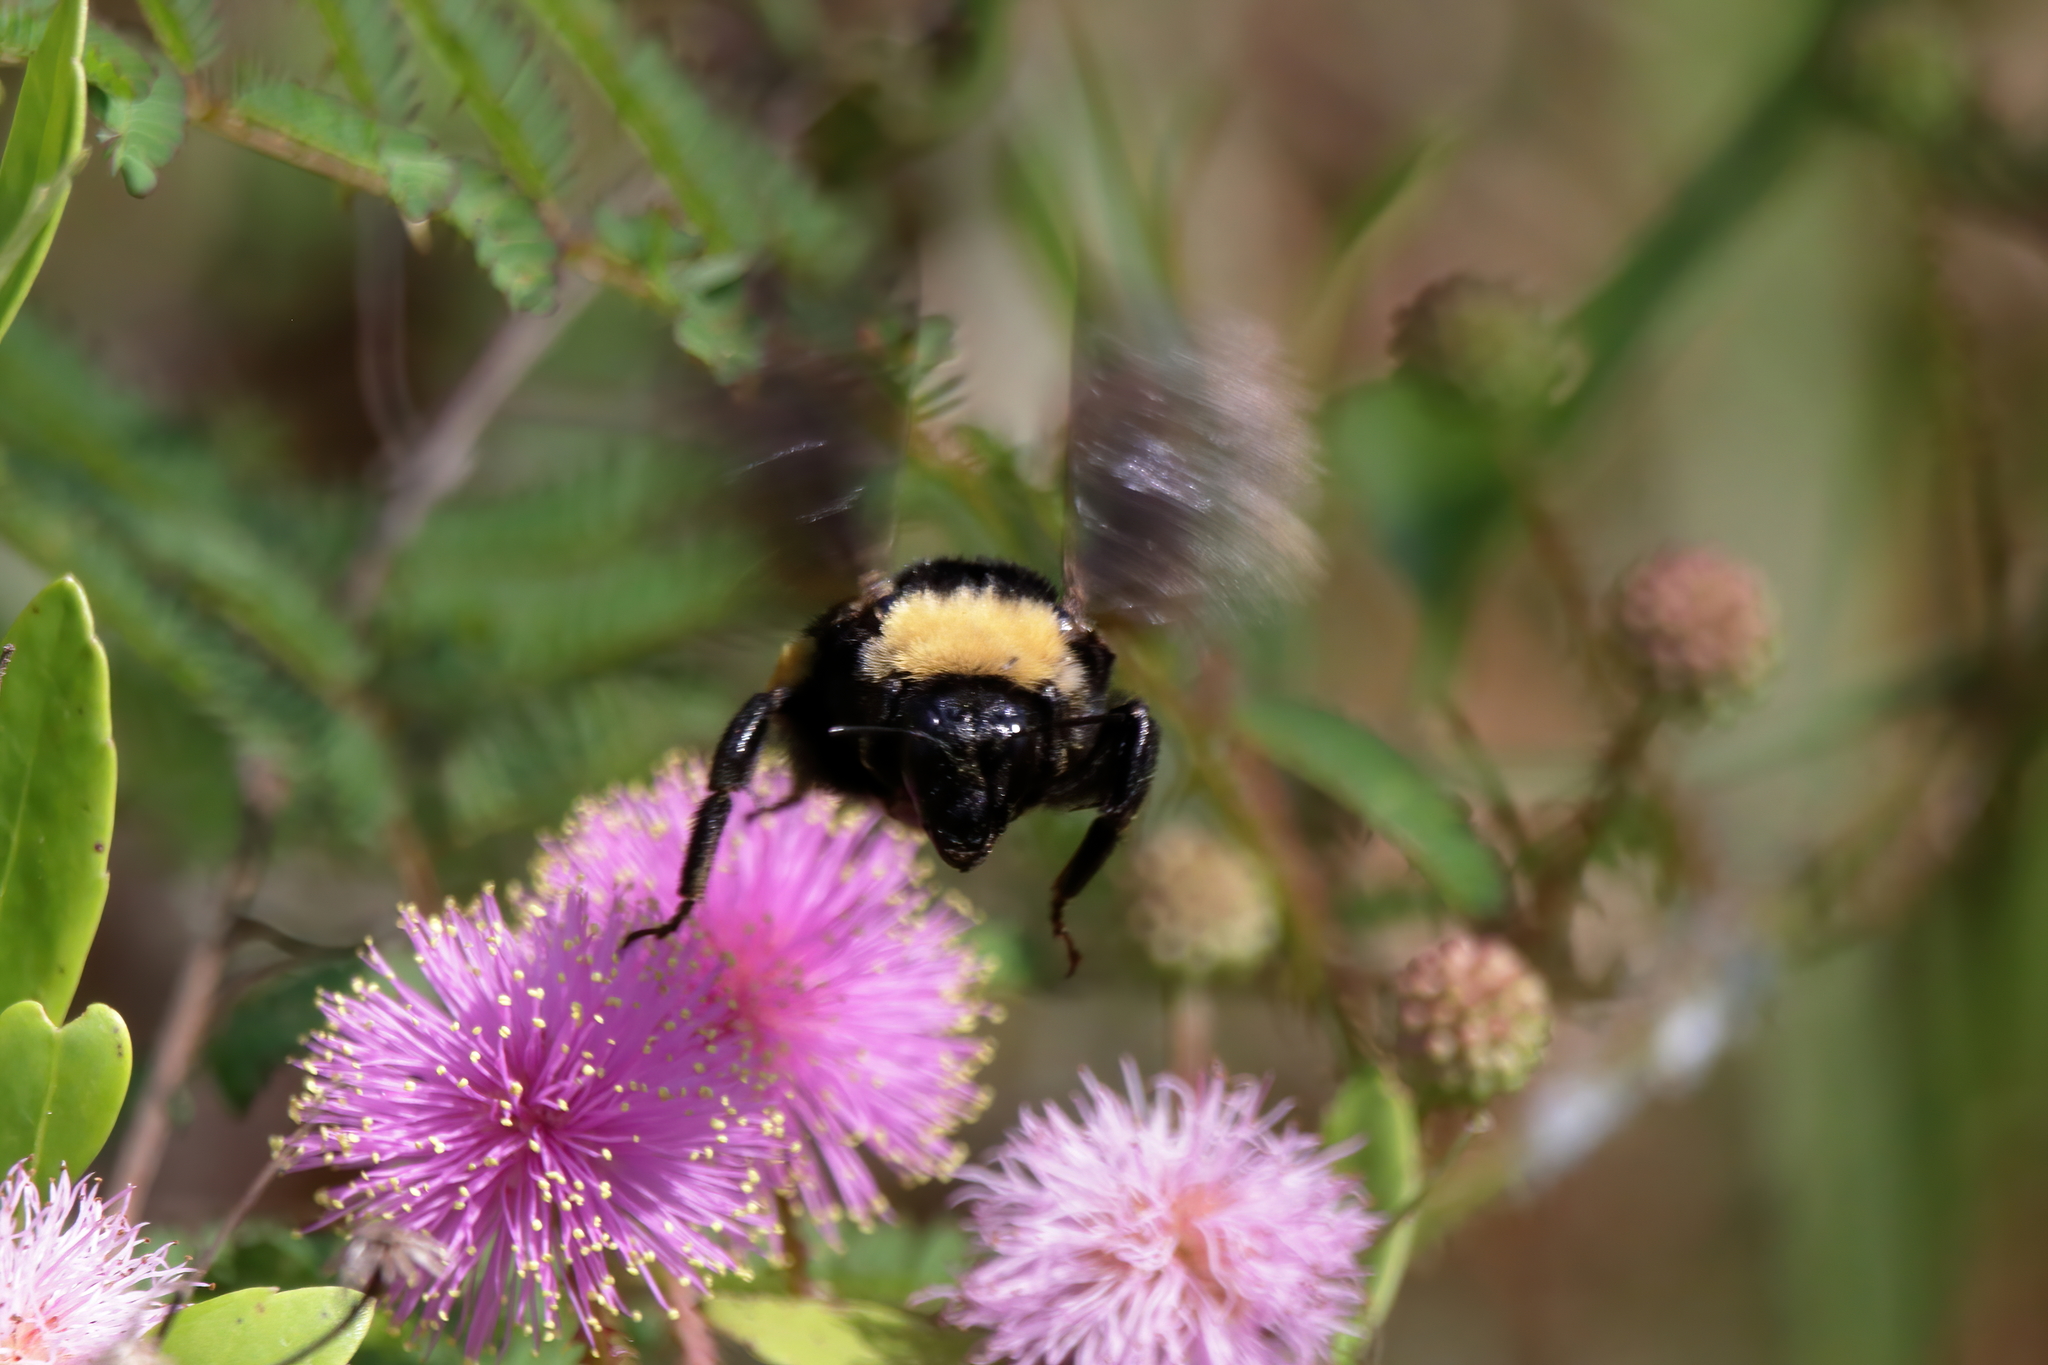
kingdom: Animalia
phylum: Arthropoda
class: Insecta
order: Hymenoptera
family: Apidae
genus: Bombus
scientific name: Bombus pensylvanicus
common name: Bumble bee
